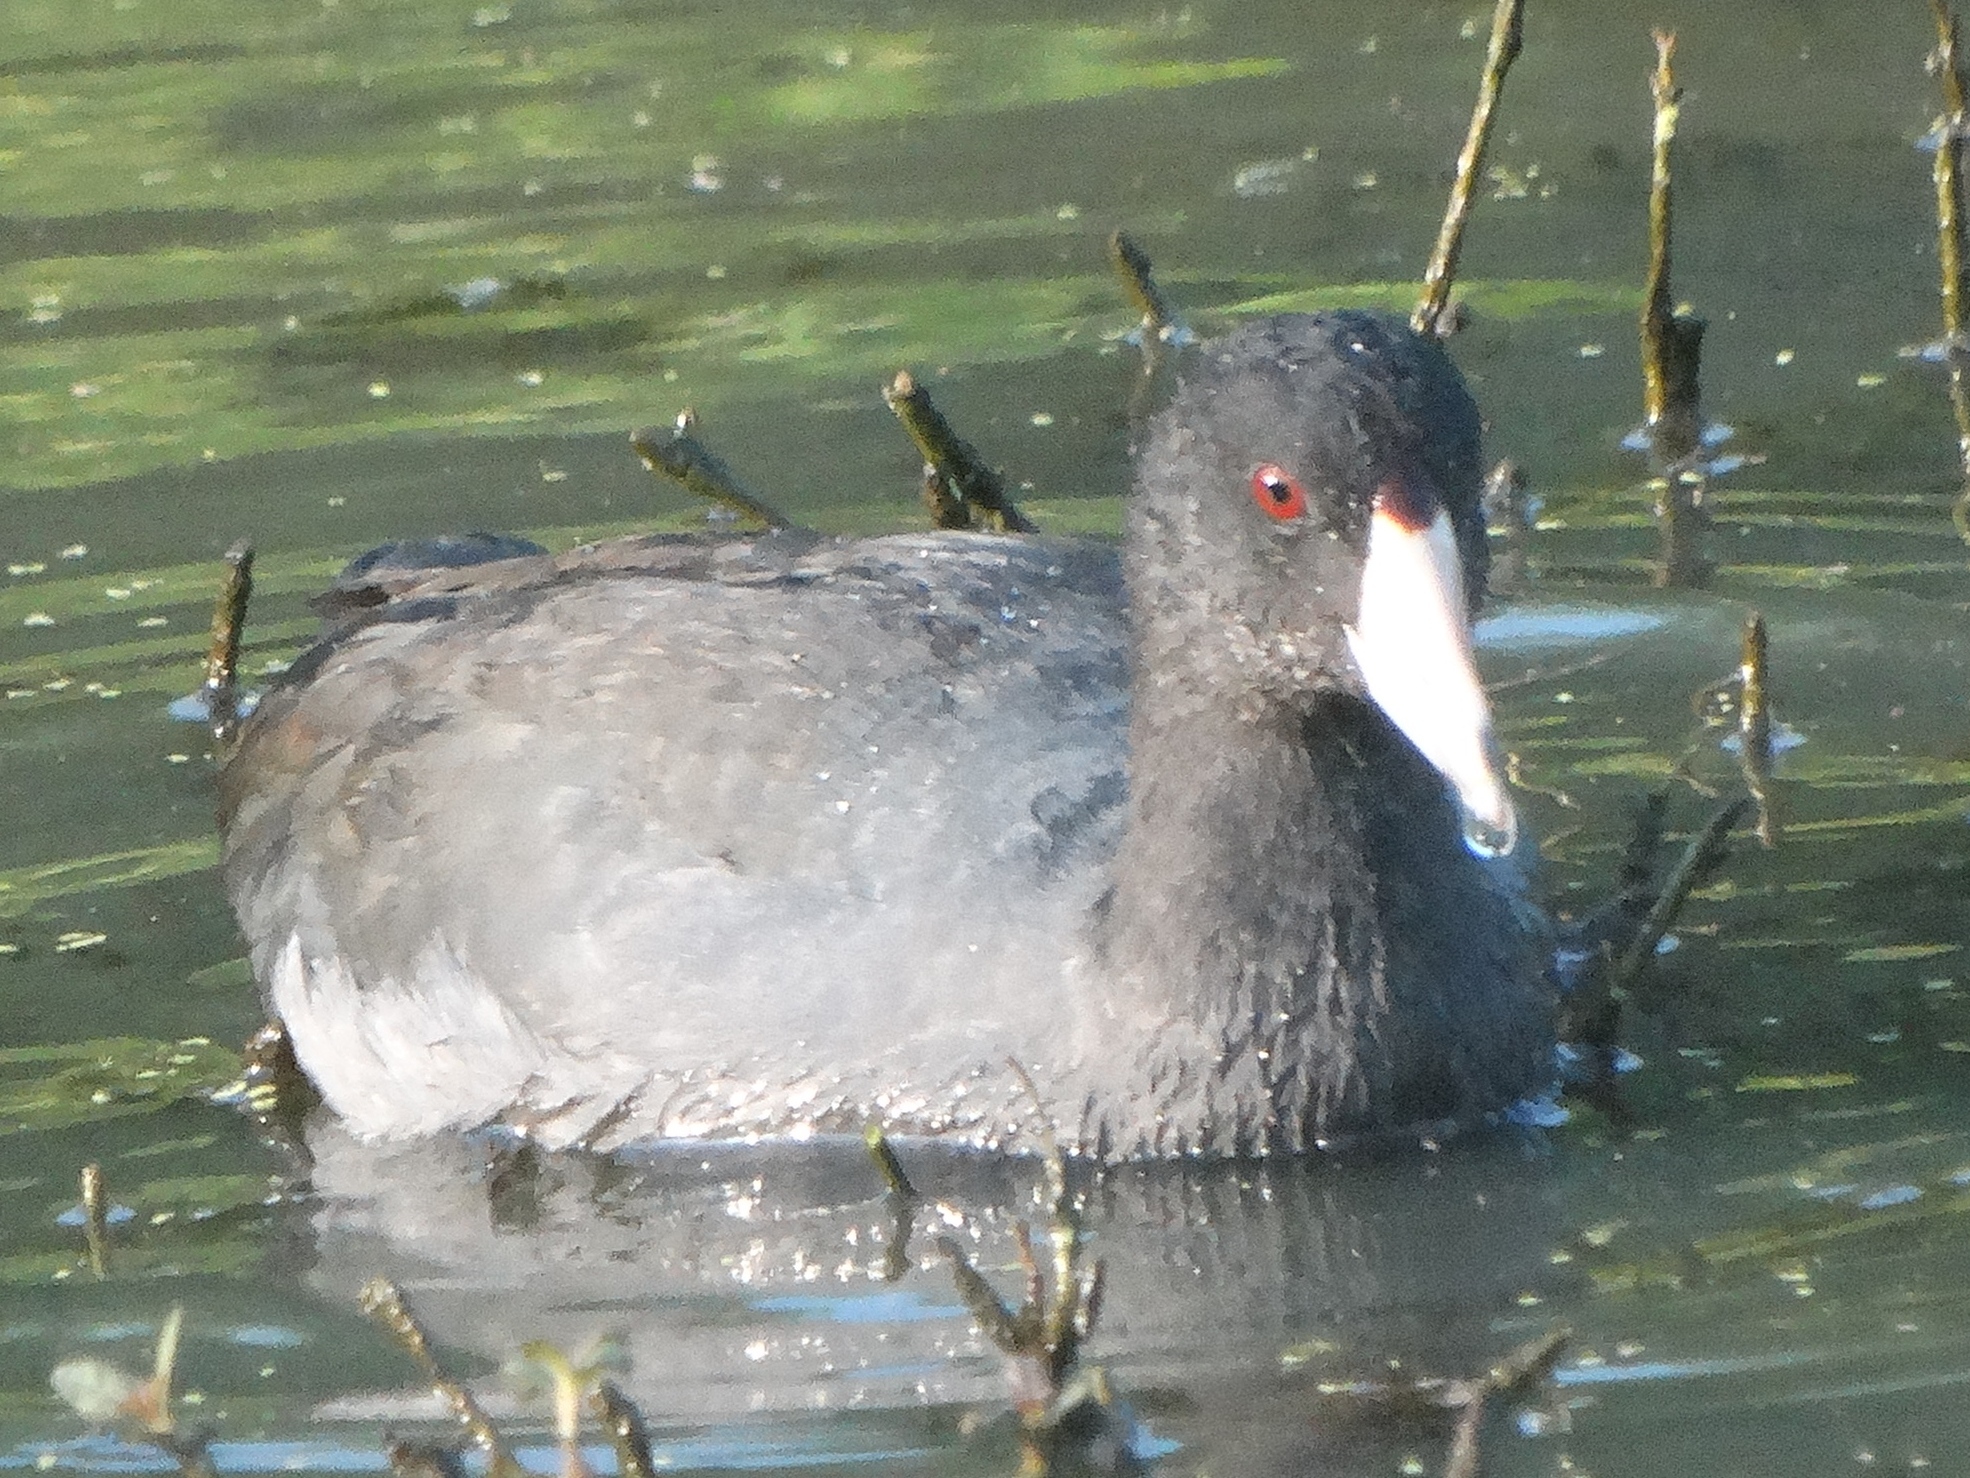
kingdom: Animalia
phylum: Chordata
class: Aves
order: Gruiformes
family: Rallidae
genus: Fulica
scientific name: Fulica americana
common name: American coot
